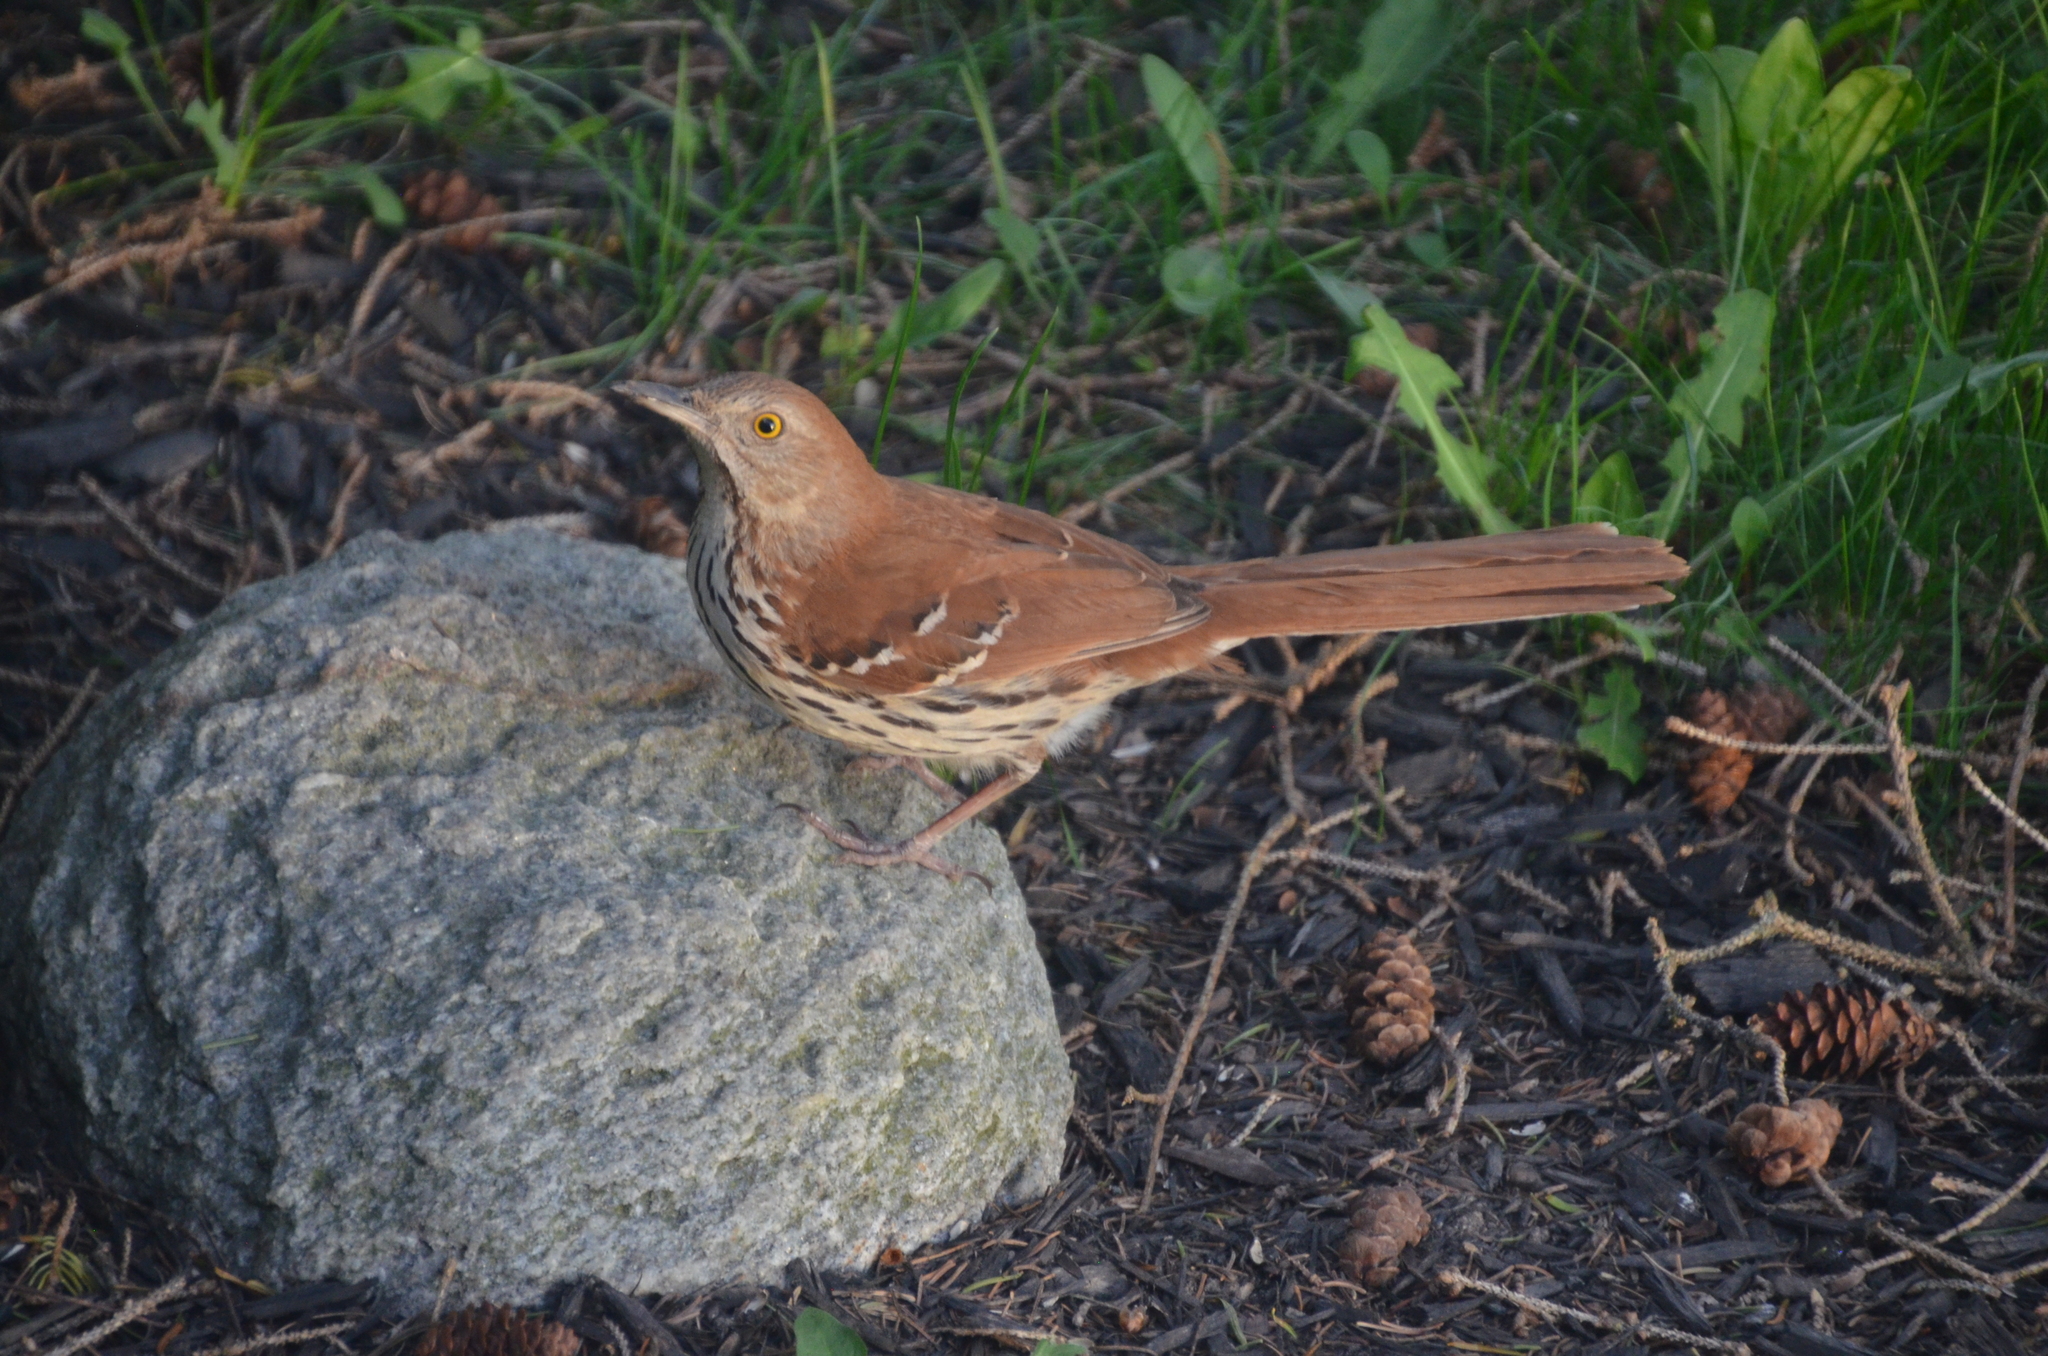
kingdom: Animalia
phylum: Chordata
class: Aves
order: Passeriformes
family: Mimidae
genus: Toxostoma
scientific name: Toxostoma rufum
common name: Brown thrasher
